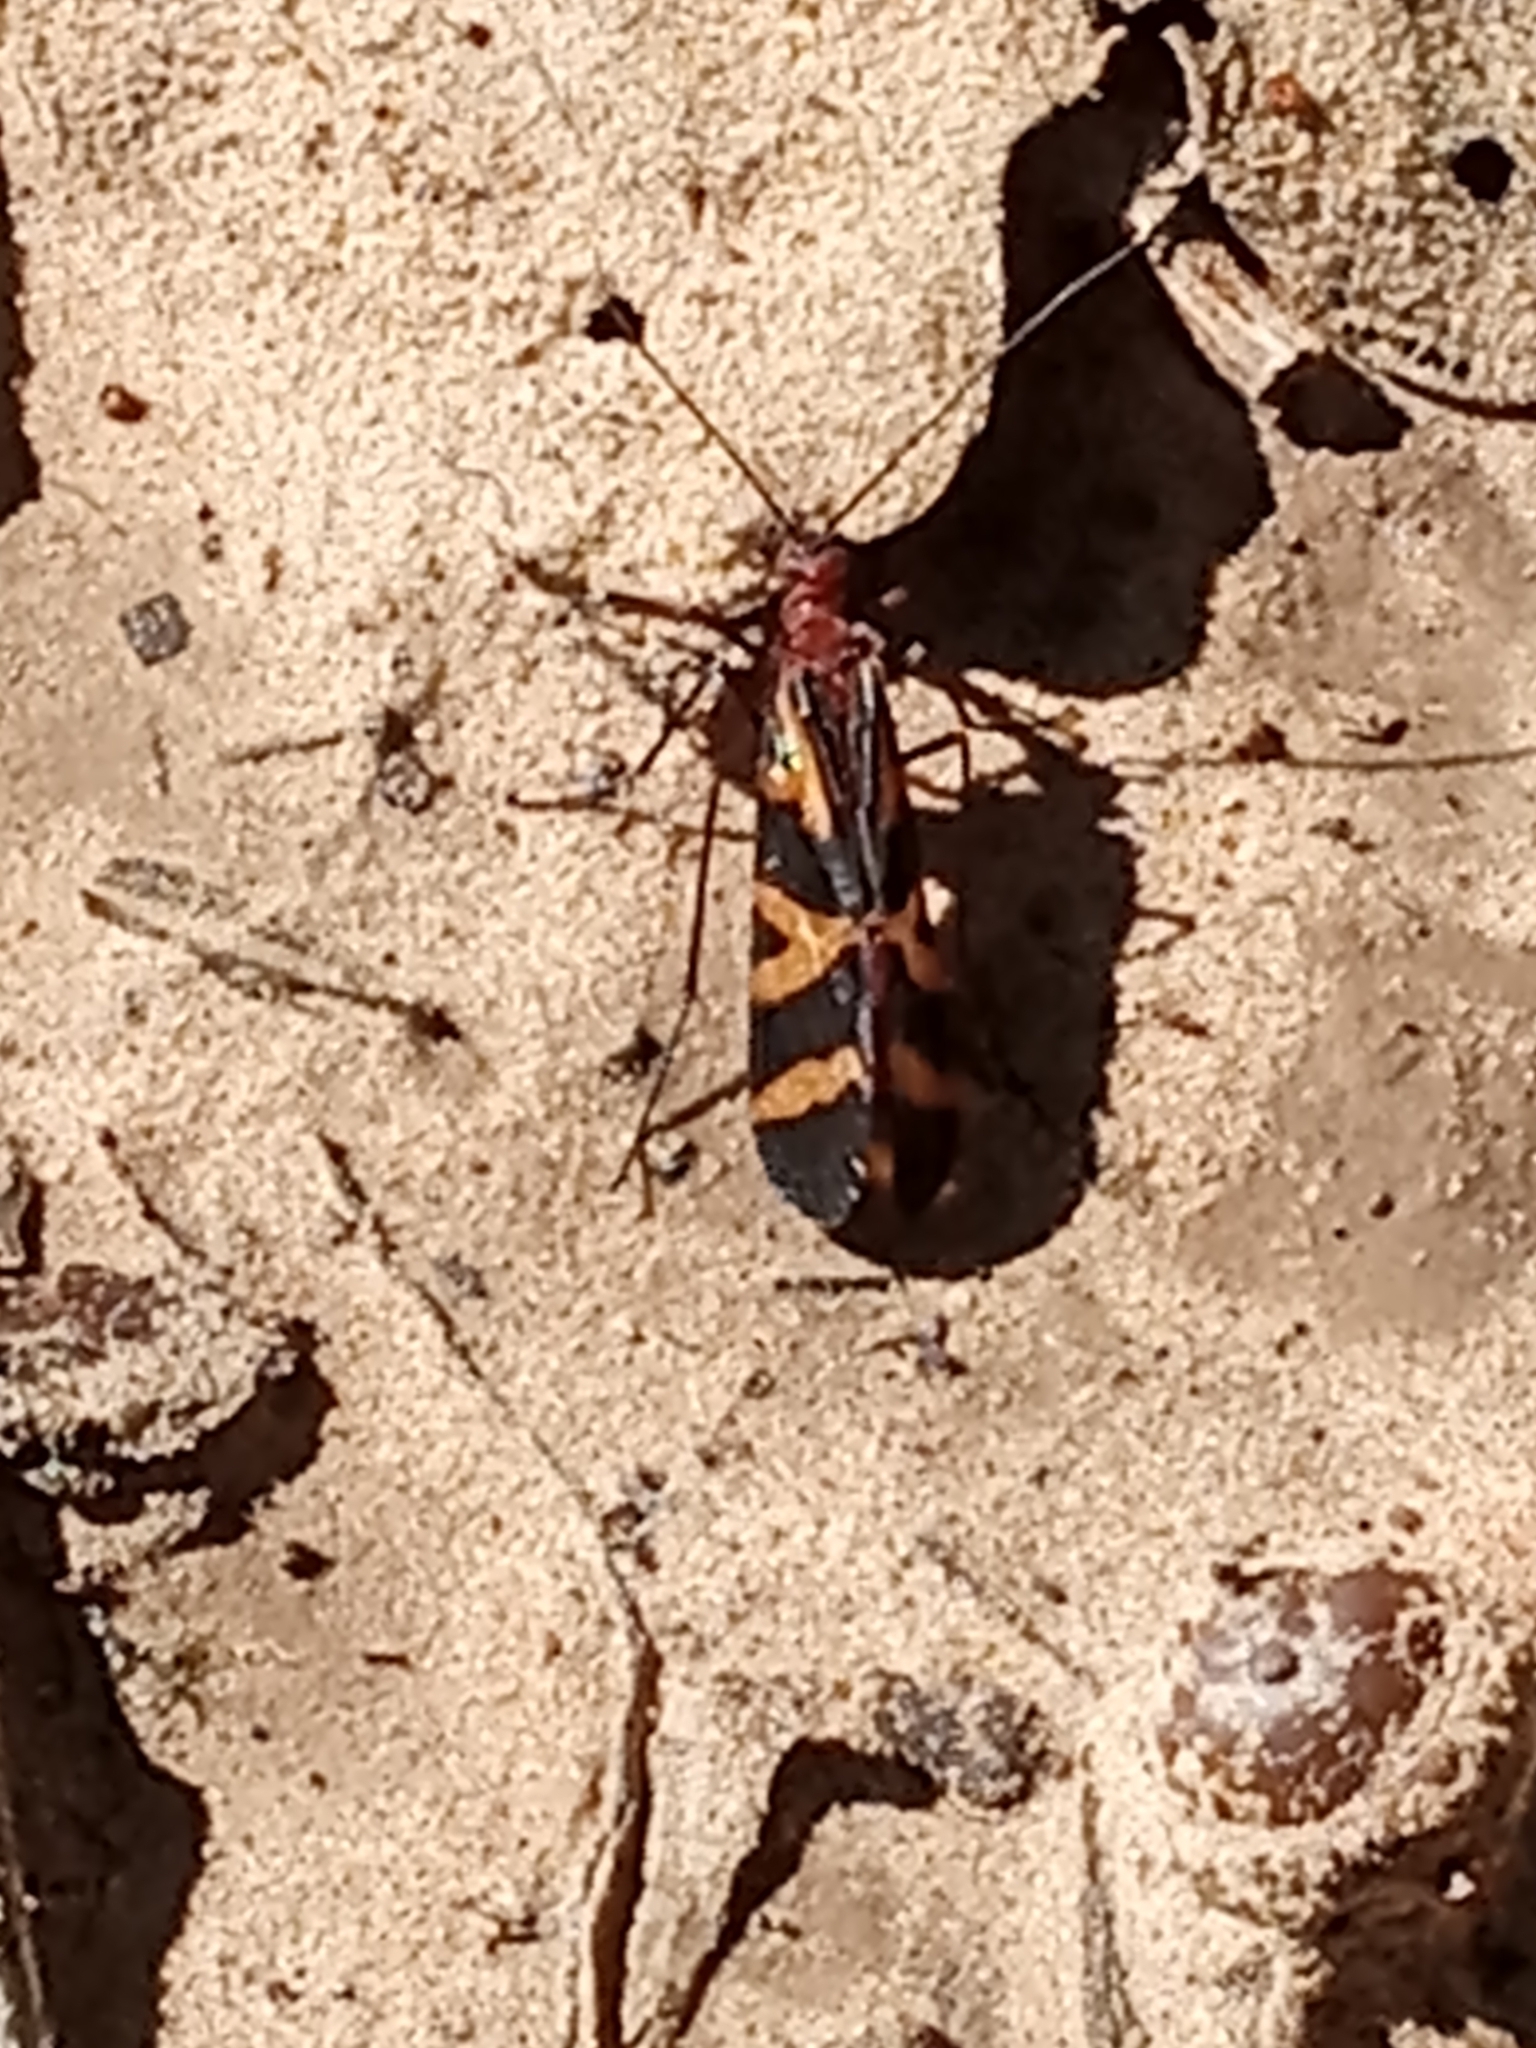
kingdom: Animalia
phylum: Arthropoda
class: Insecta
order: Mecoptera
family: Panorpidae
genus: Panorpa
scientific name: Panorpa nuptialis
